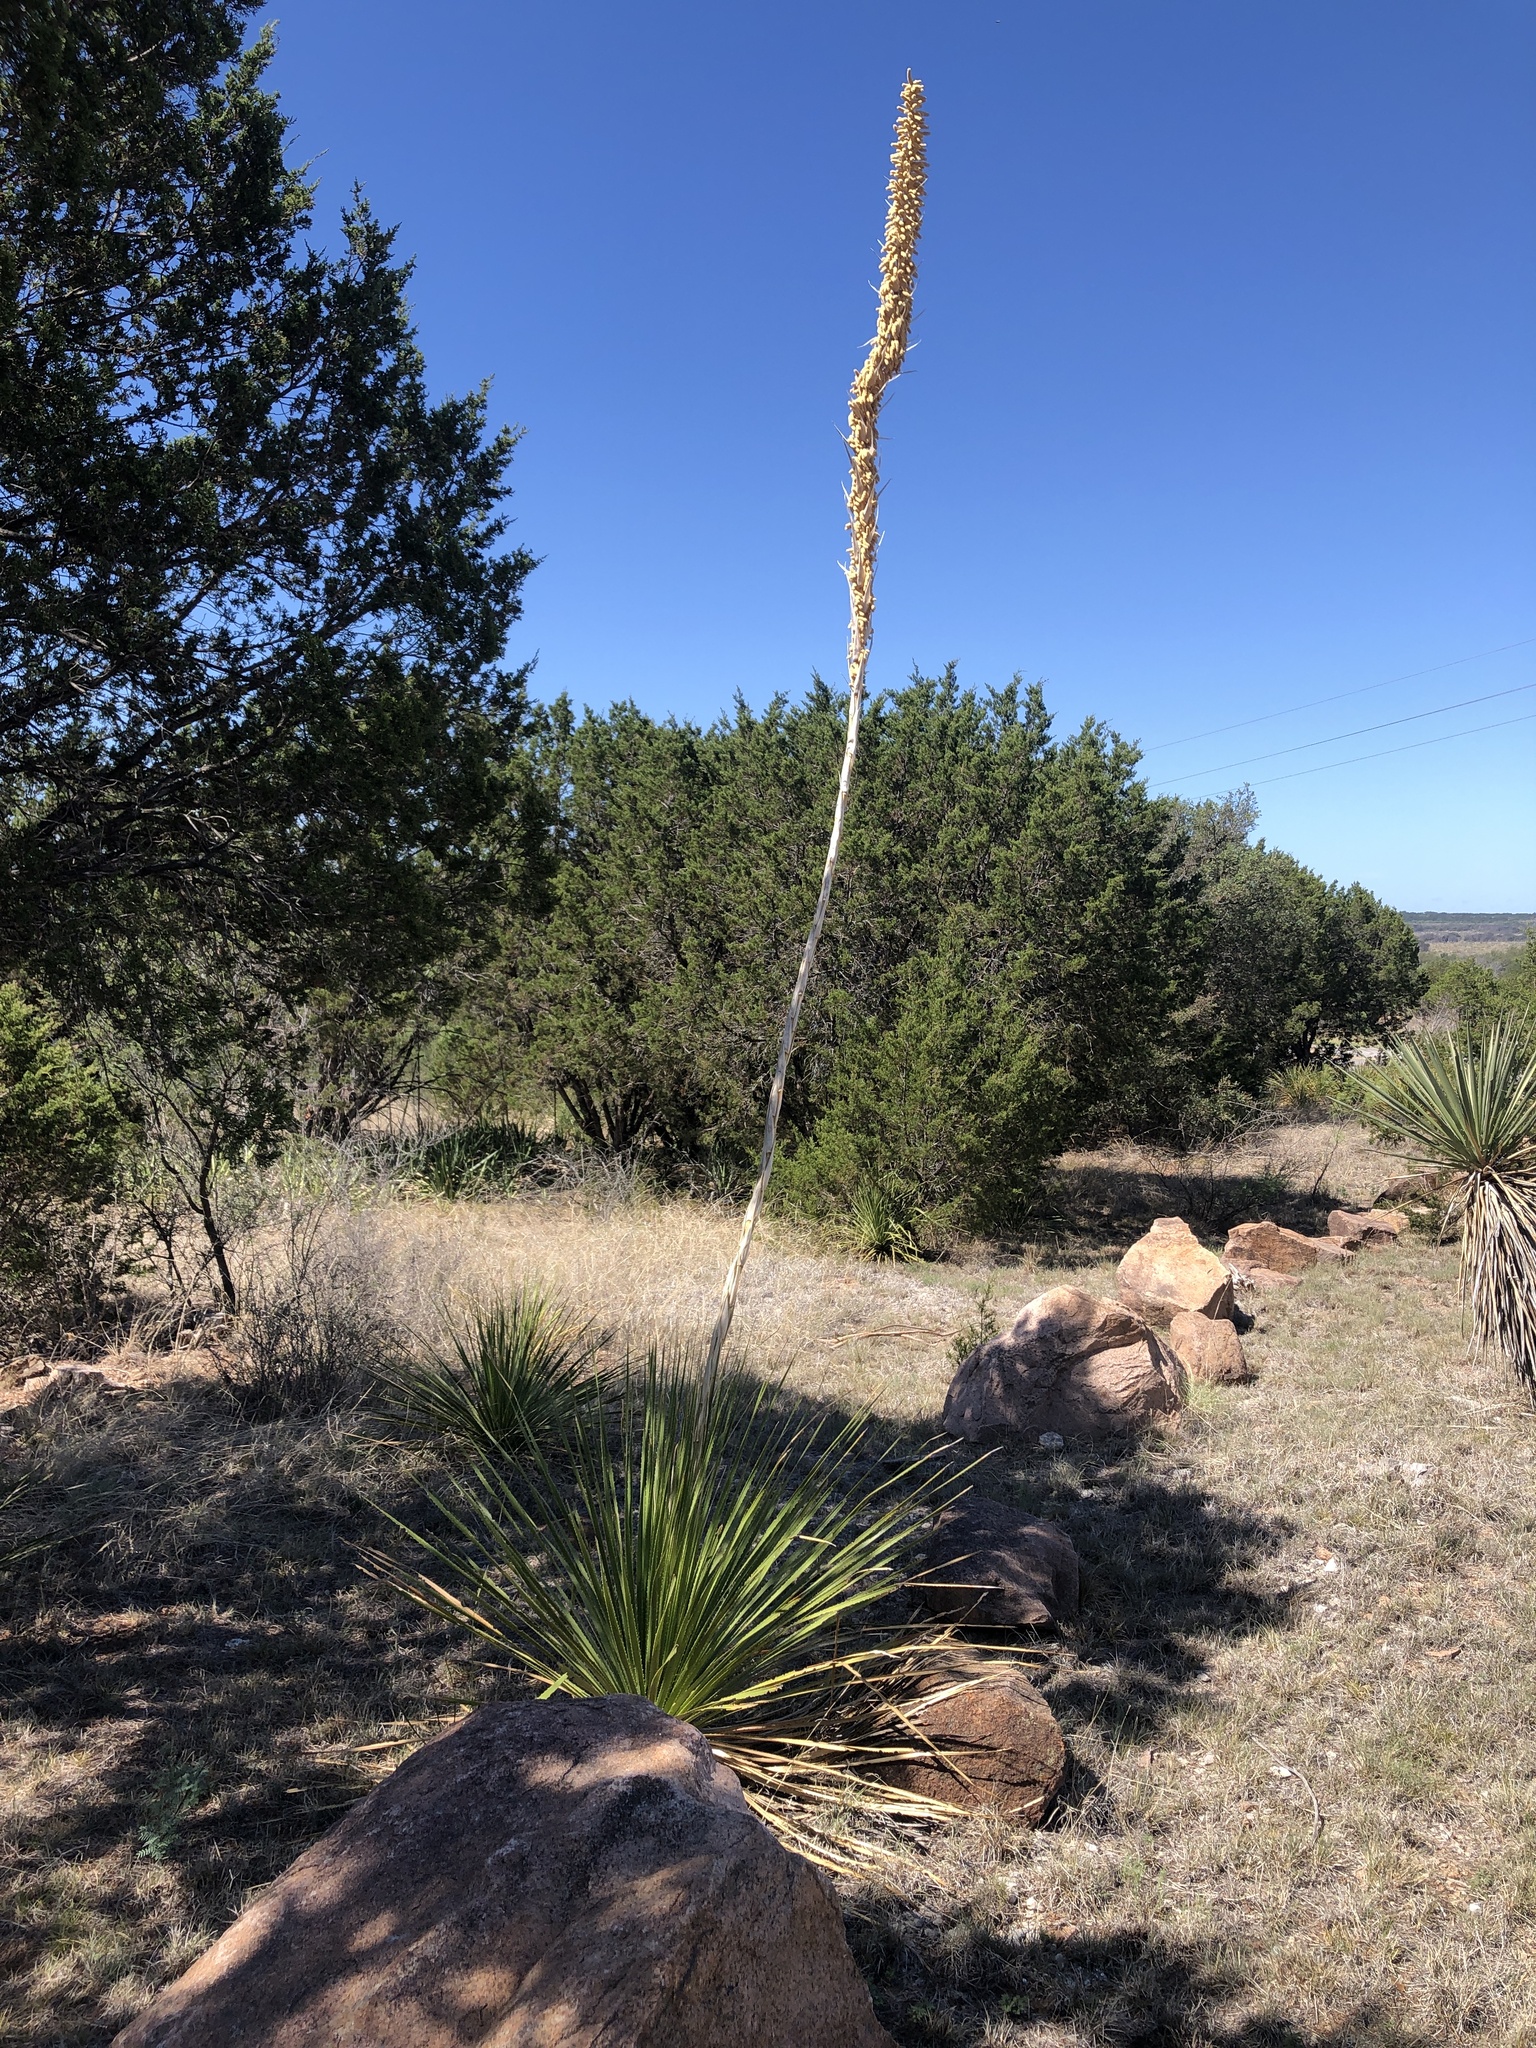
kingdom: Plantae
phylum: Tracheophyta
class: Liliopsida
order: Asparagales
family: Asparagaceae
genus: Dasylirion
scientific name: Dasylirion texanum
